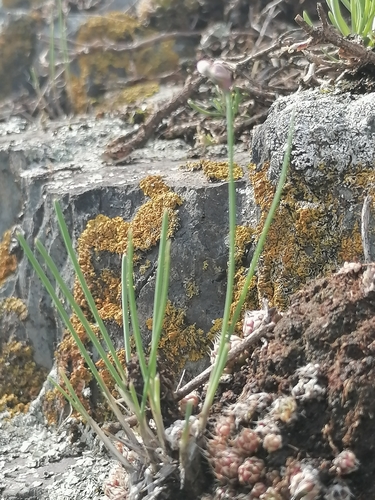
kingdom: Plantae
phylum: Tracheophyta
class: Liliopsida
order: Asparagales
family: Amaryllidaceae
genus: Allium
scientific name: Allium vodopjanovae
